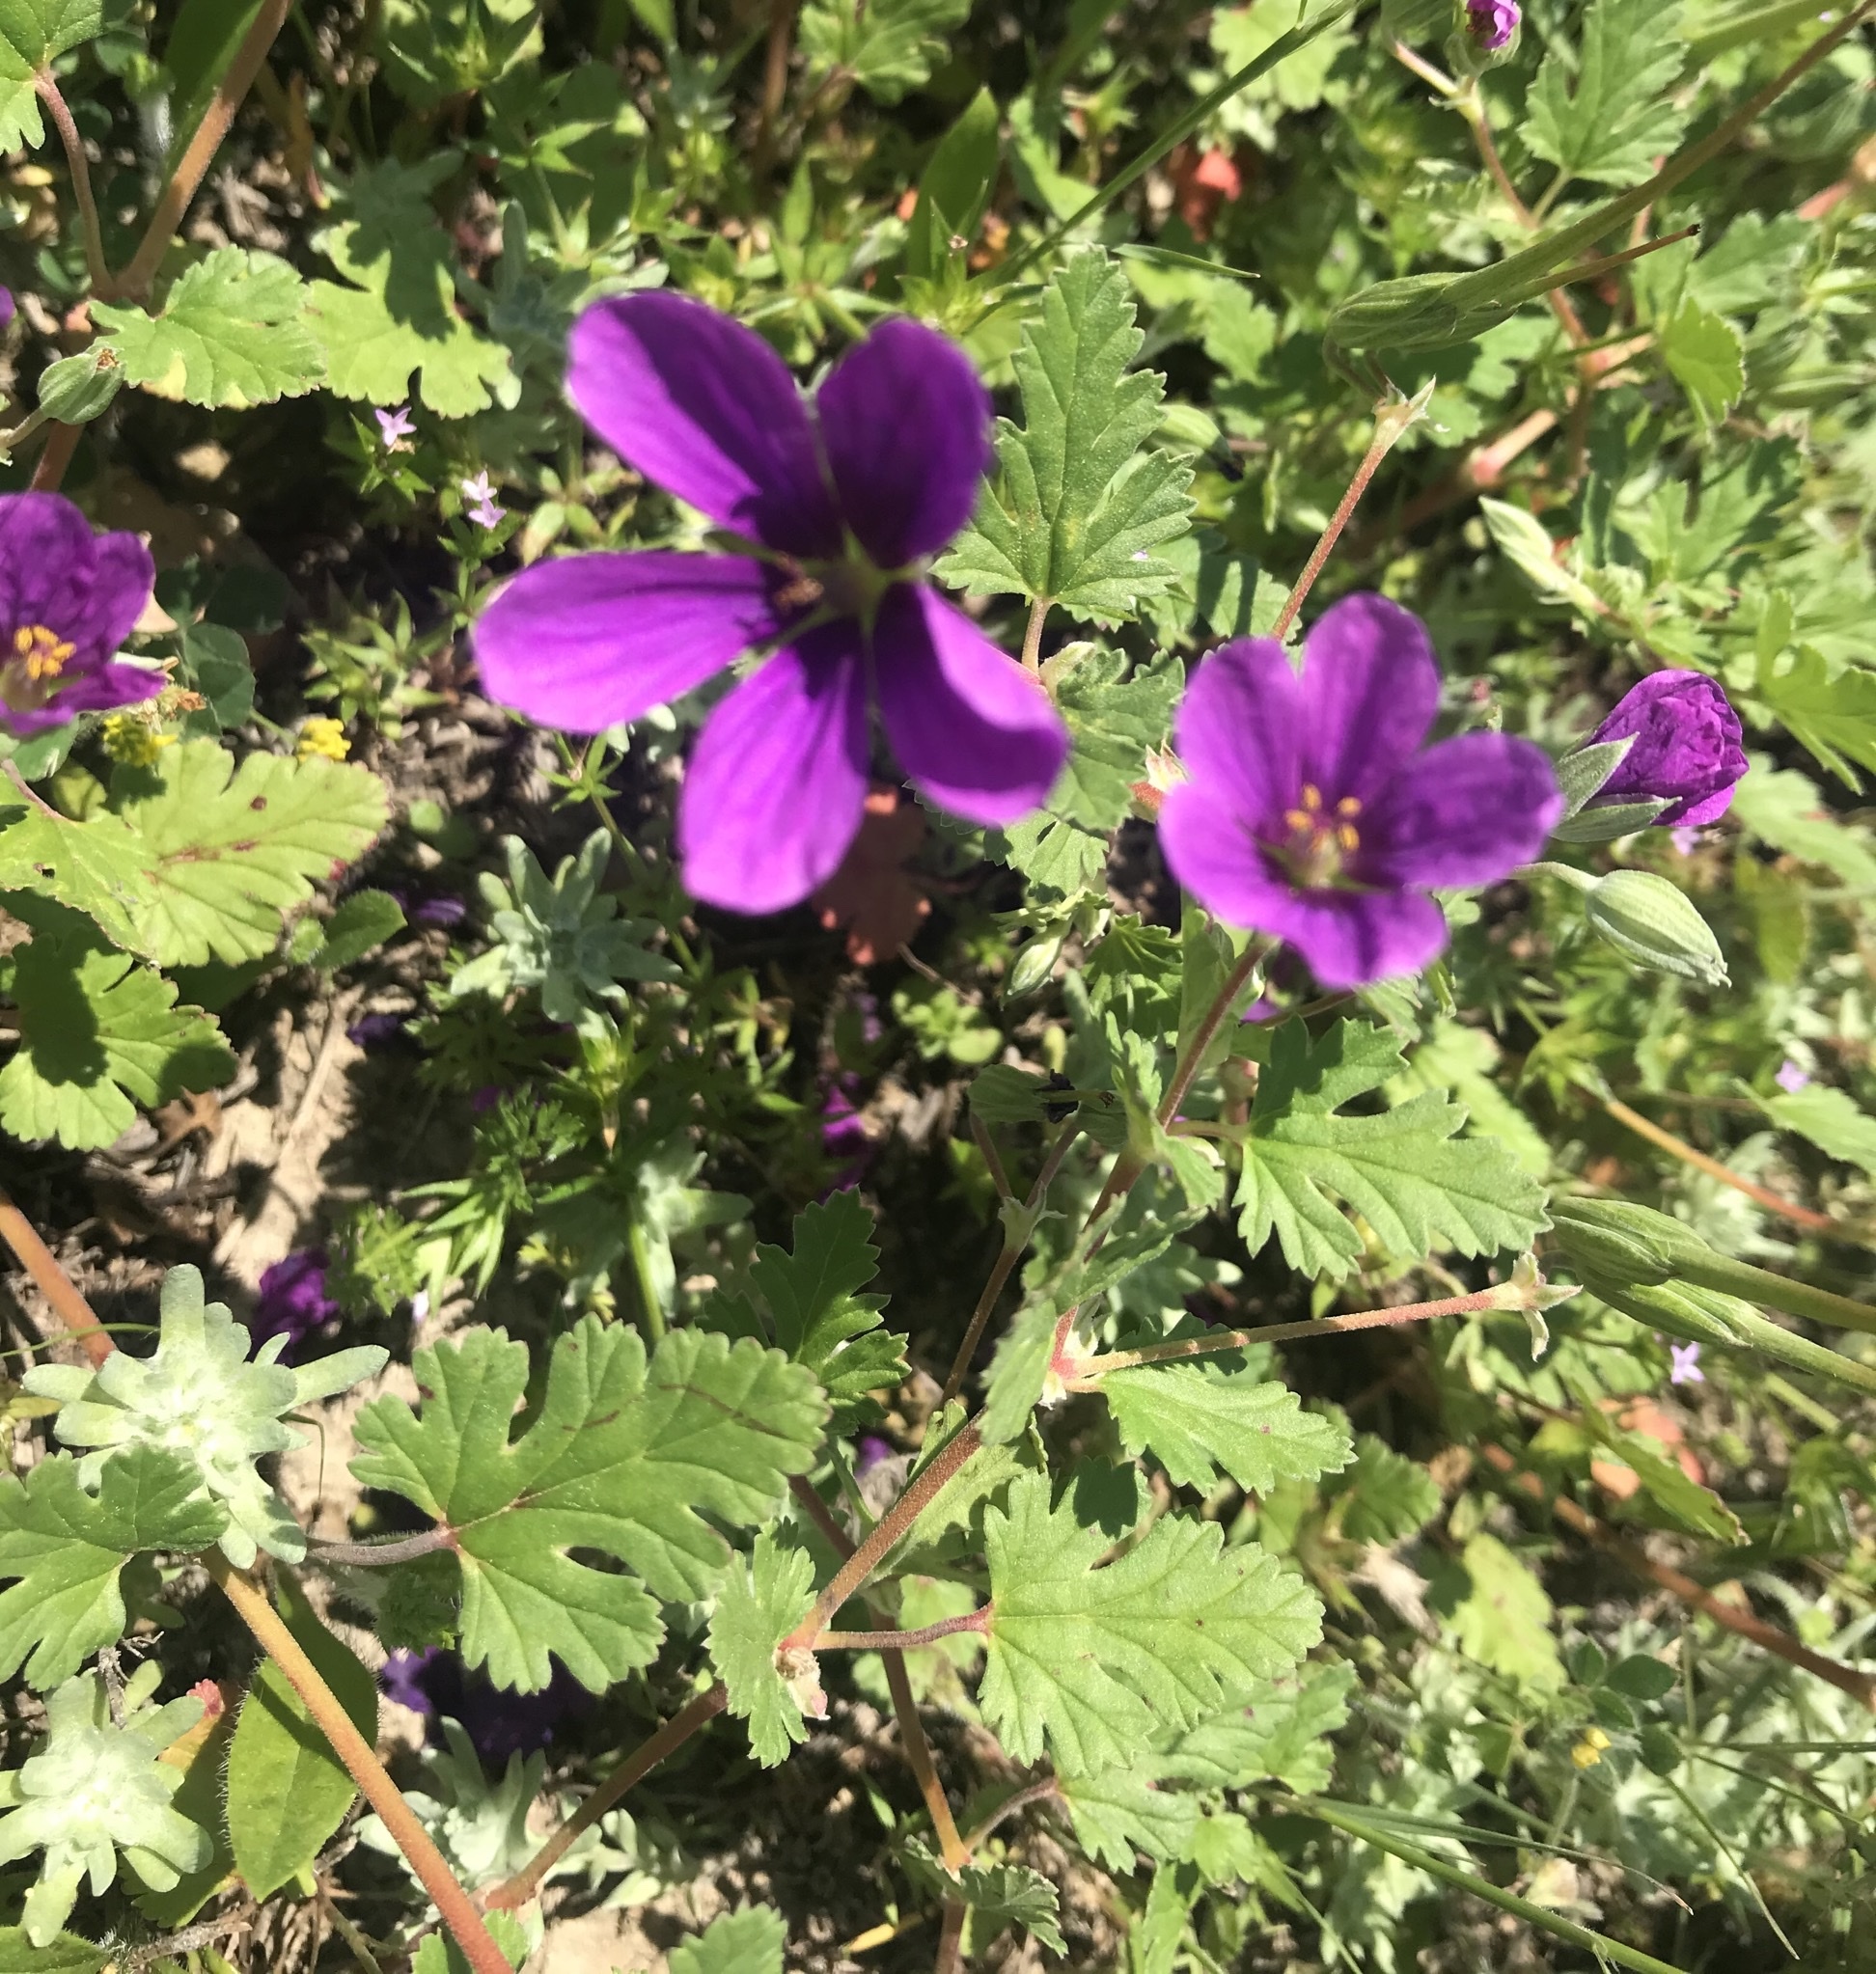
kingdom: Plantae
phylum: Tracheophyta
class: Magnoliopsida
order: Geraniales
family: Geraniaceae
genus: Erodium
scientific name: Erodium texanum
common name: Texas stork's-bill
